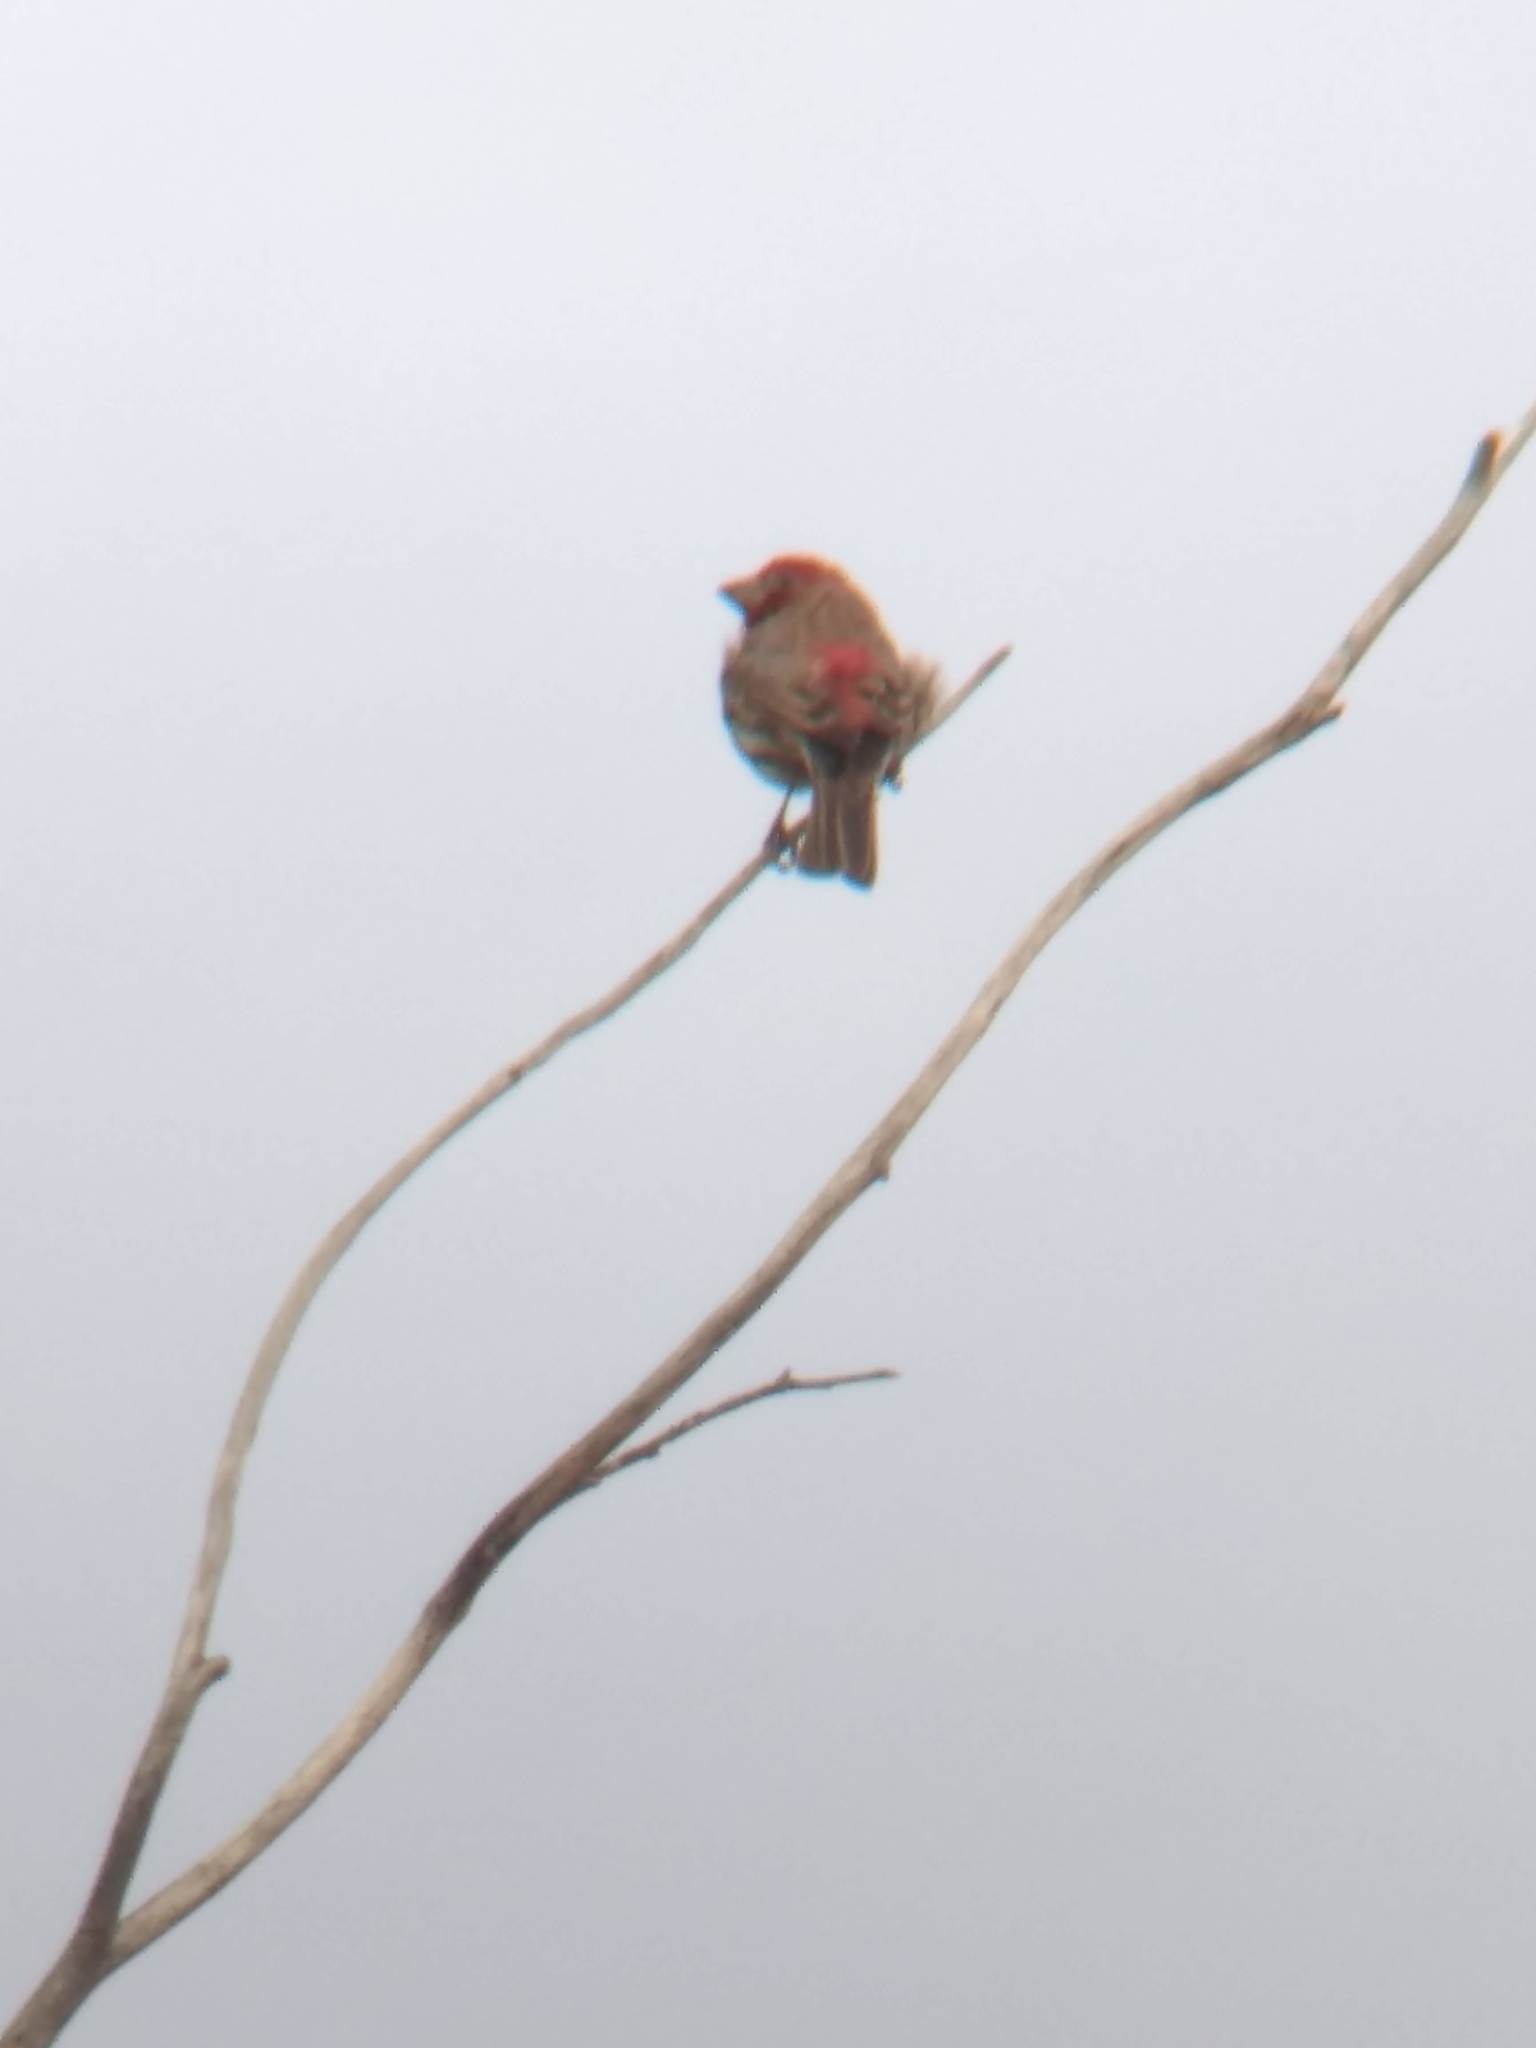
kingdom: Animalia
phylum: Chordata
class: Aves
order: Passeriformes
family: Fringillidae
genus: Haemorhous
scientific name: Haemorhous mexicanus
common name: House finch
